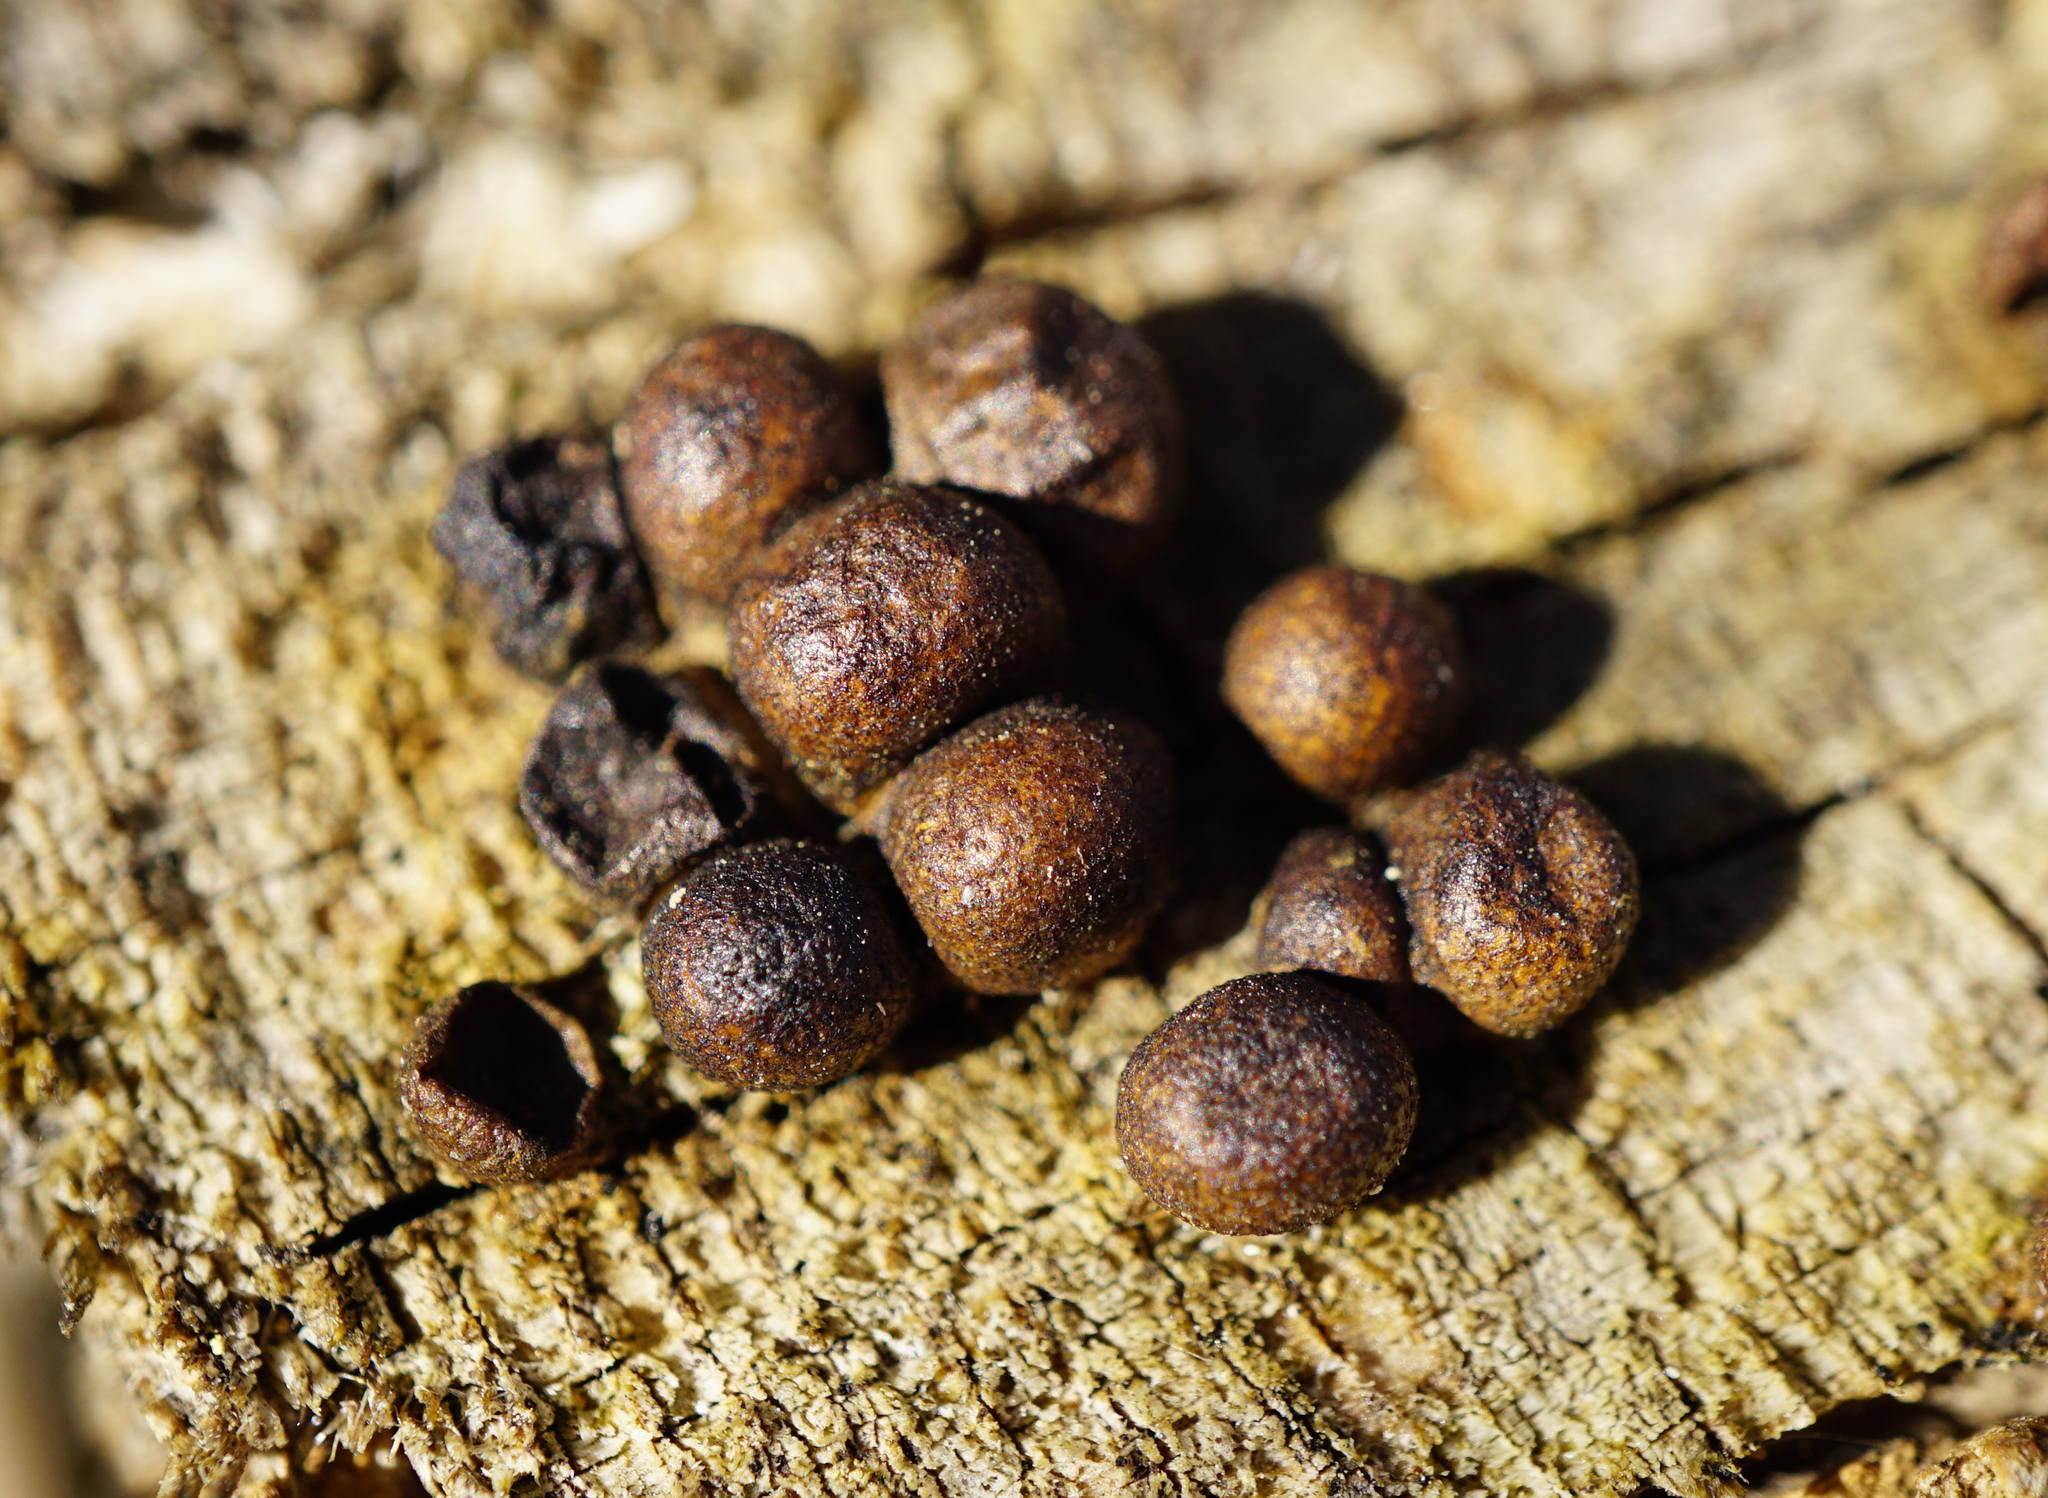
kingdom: Protozoa
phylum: Mycetozoa
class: Myxomycetes
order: Cribrariales
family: Tubiferaceae
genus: Lycogala
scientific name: Lycogala epidendrum
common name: Wolf's milk
